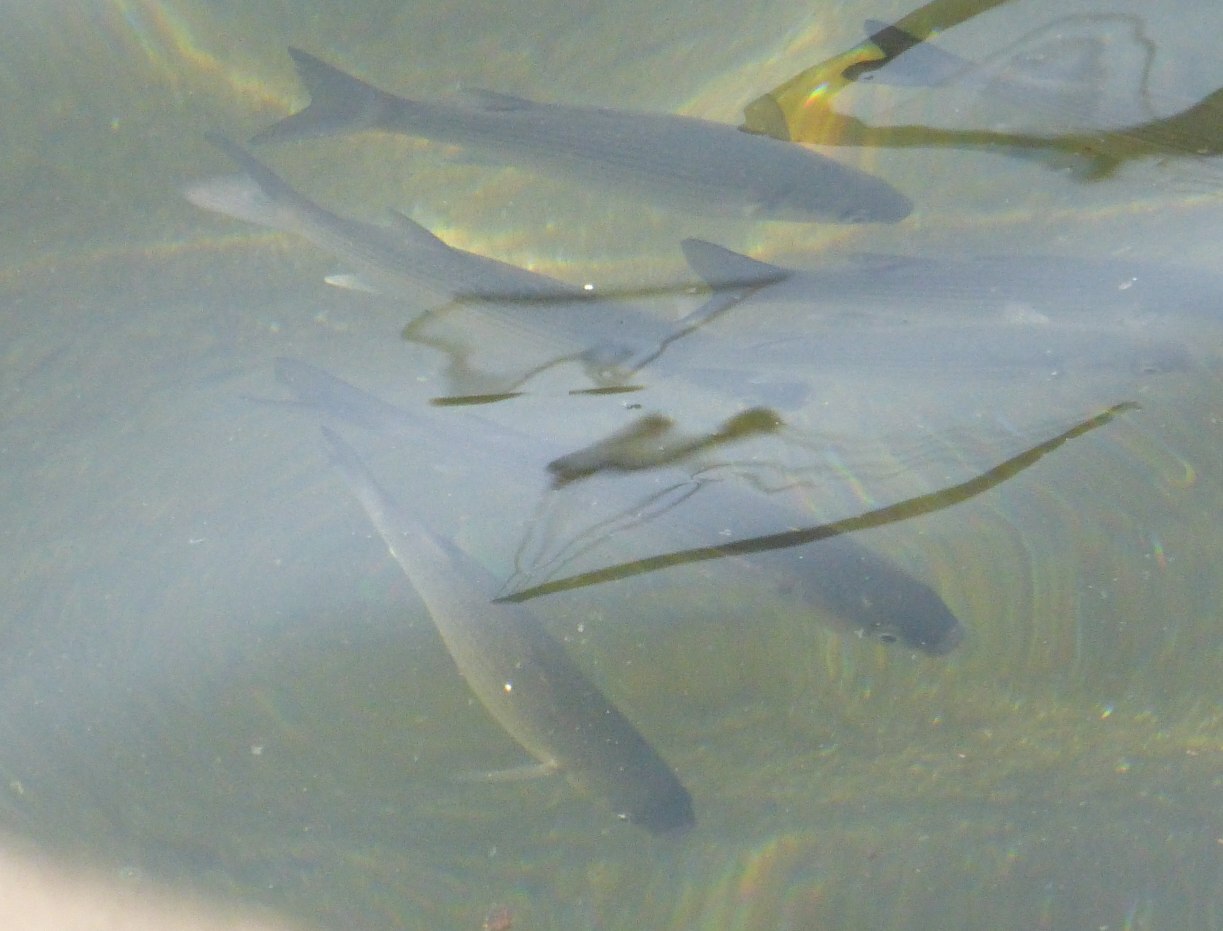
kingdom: Animalia
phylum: Chordata
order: Mugiliformes
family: Mugilidae
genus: Chelon
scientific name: Chelon labrosus
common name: Thick-lipped mullet
